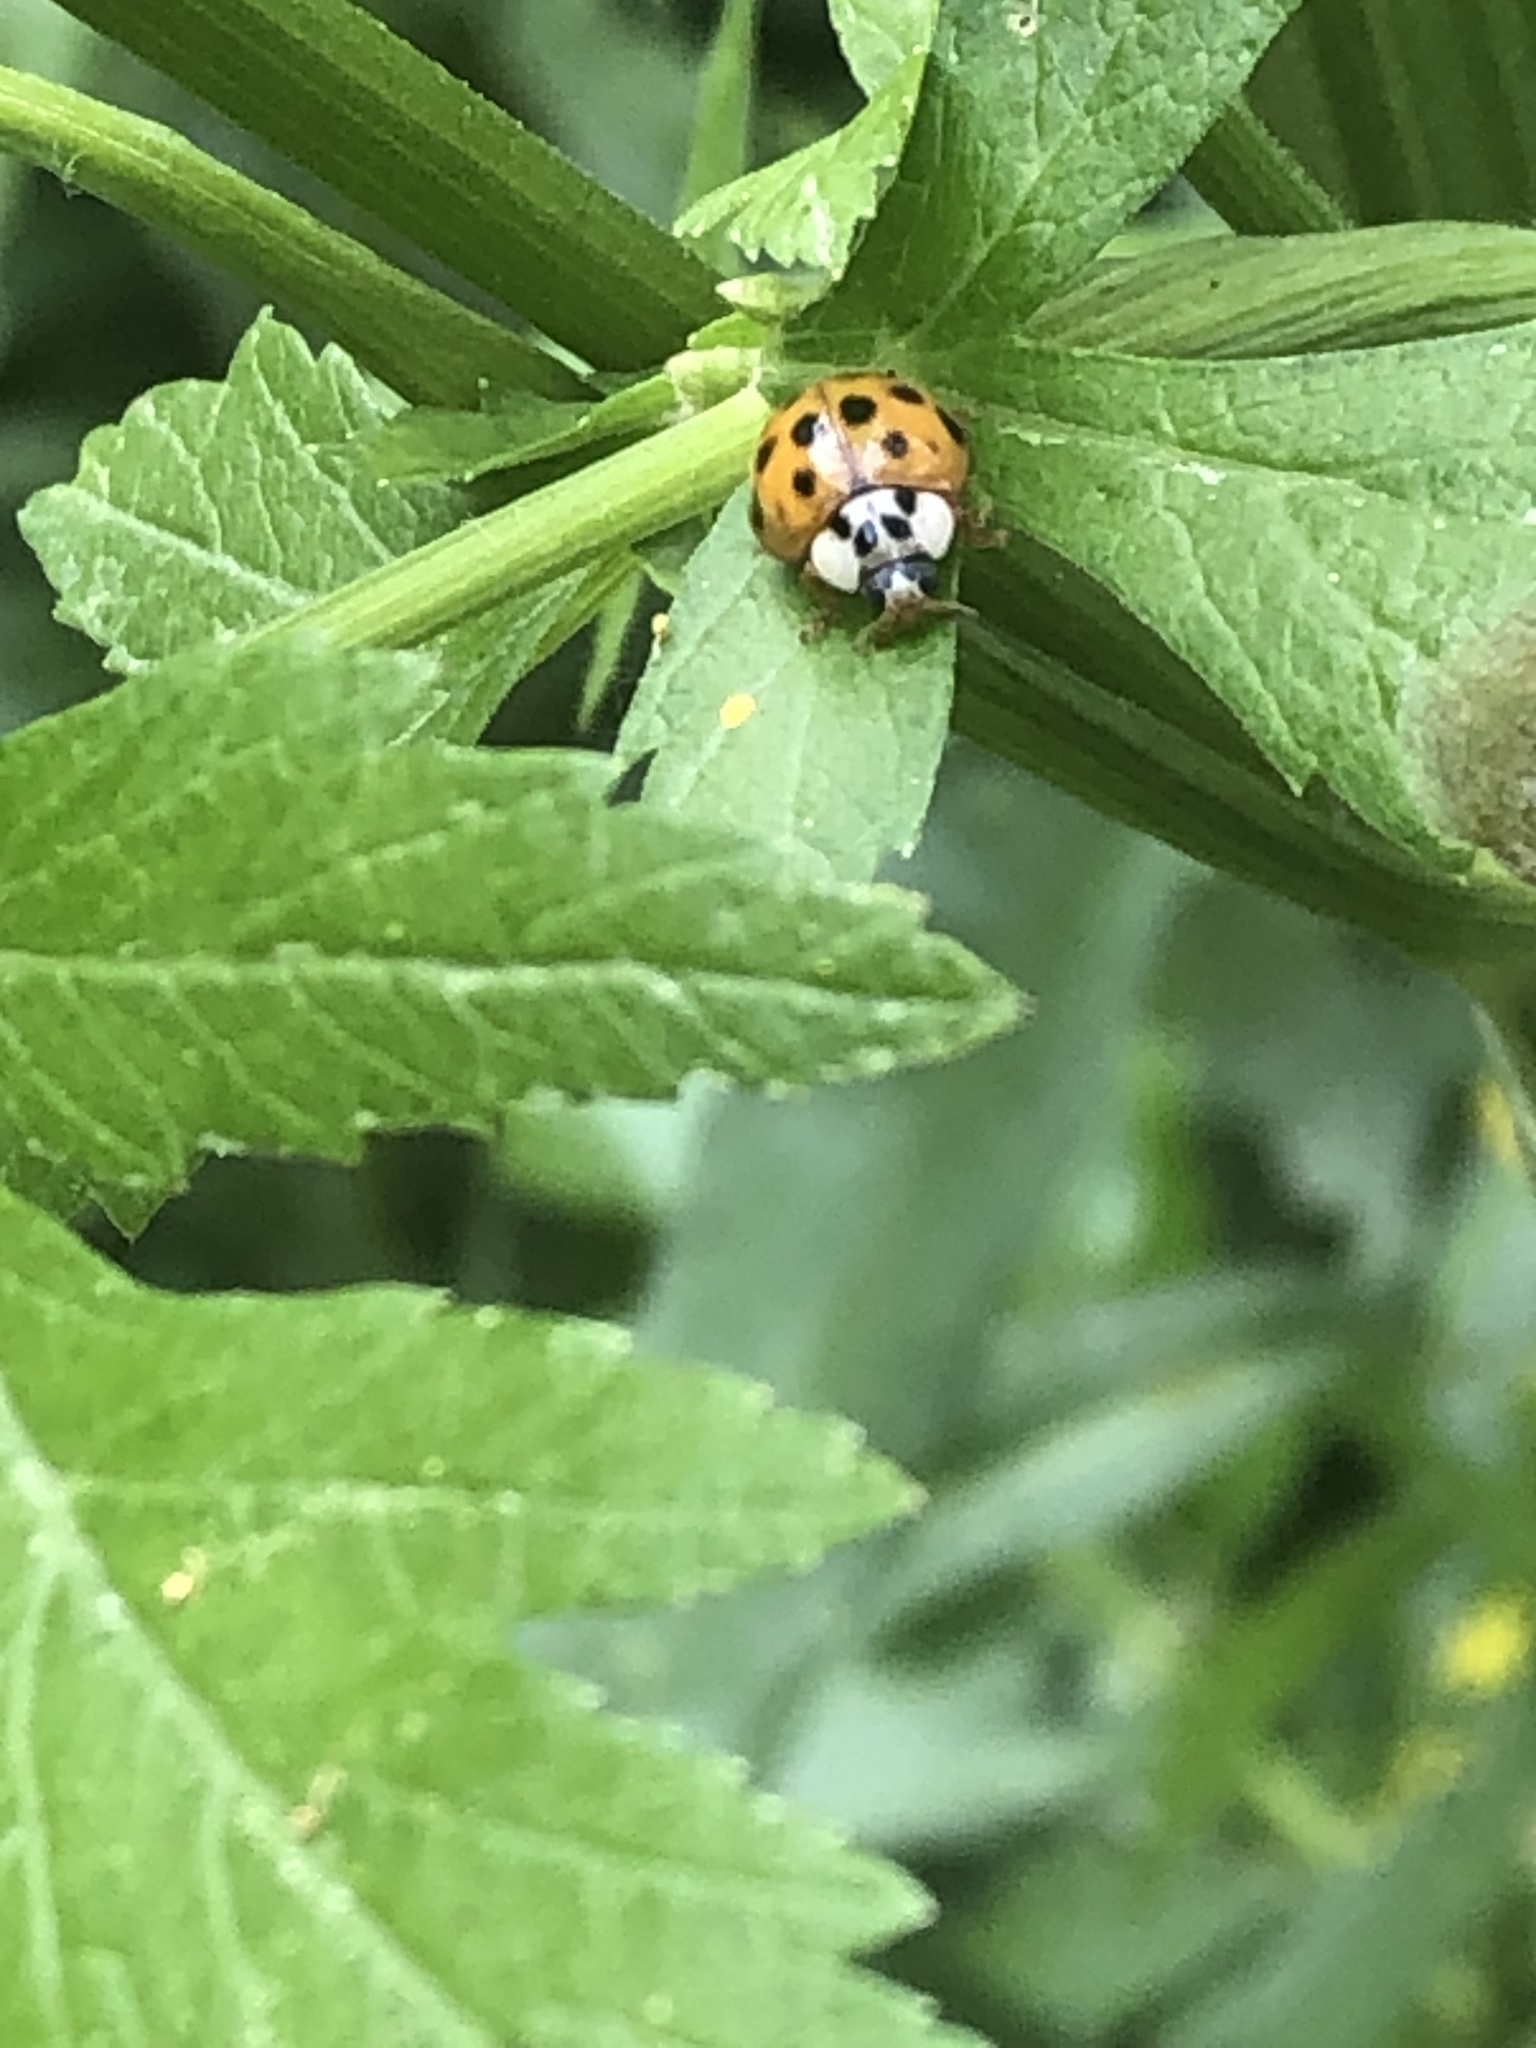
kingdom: Animalia
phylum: Arthropoda
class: Insecta
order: Coleoptera
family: Coccinellidae
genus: Harmonia
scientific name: Harmonia axyridis
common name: Harlequin ladybird
